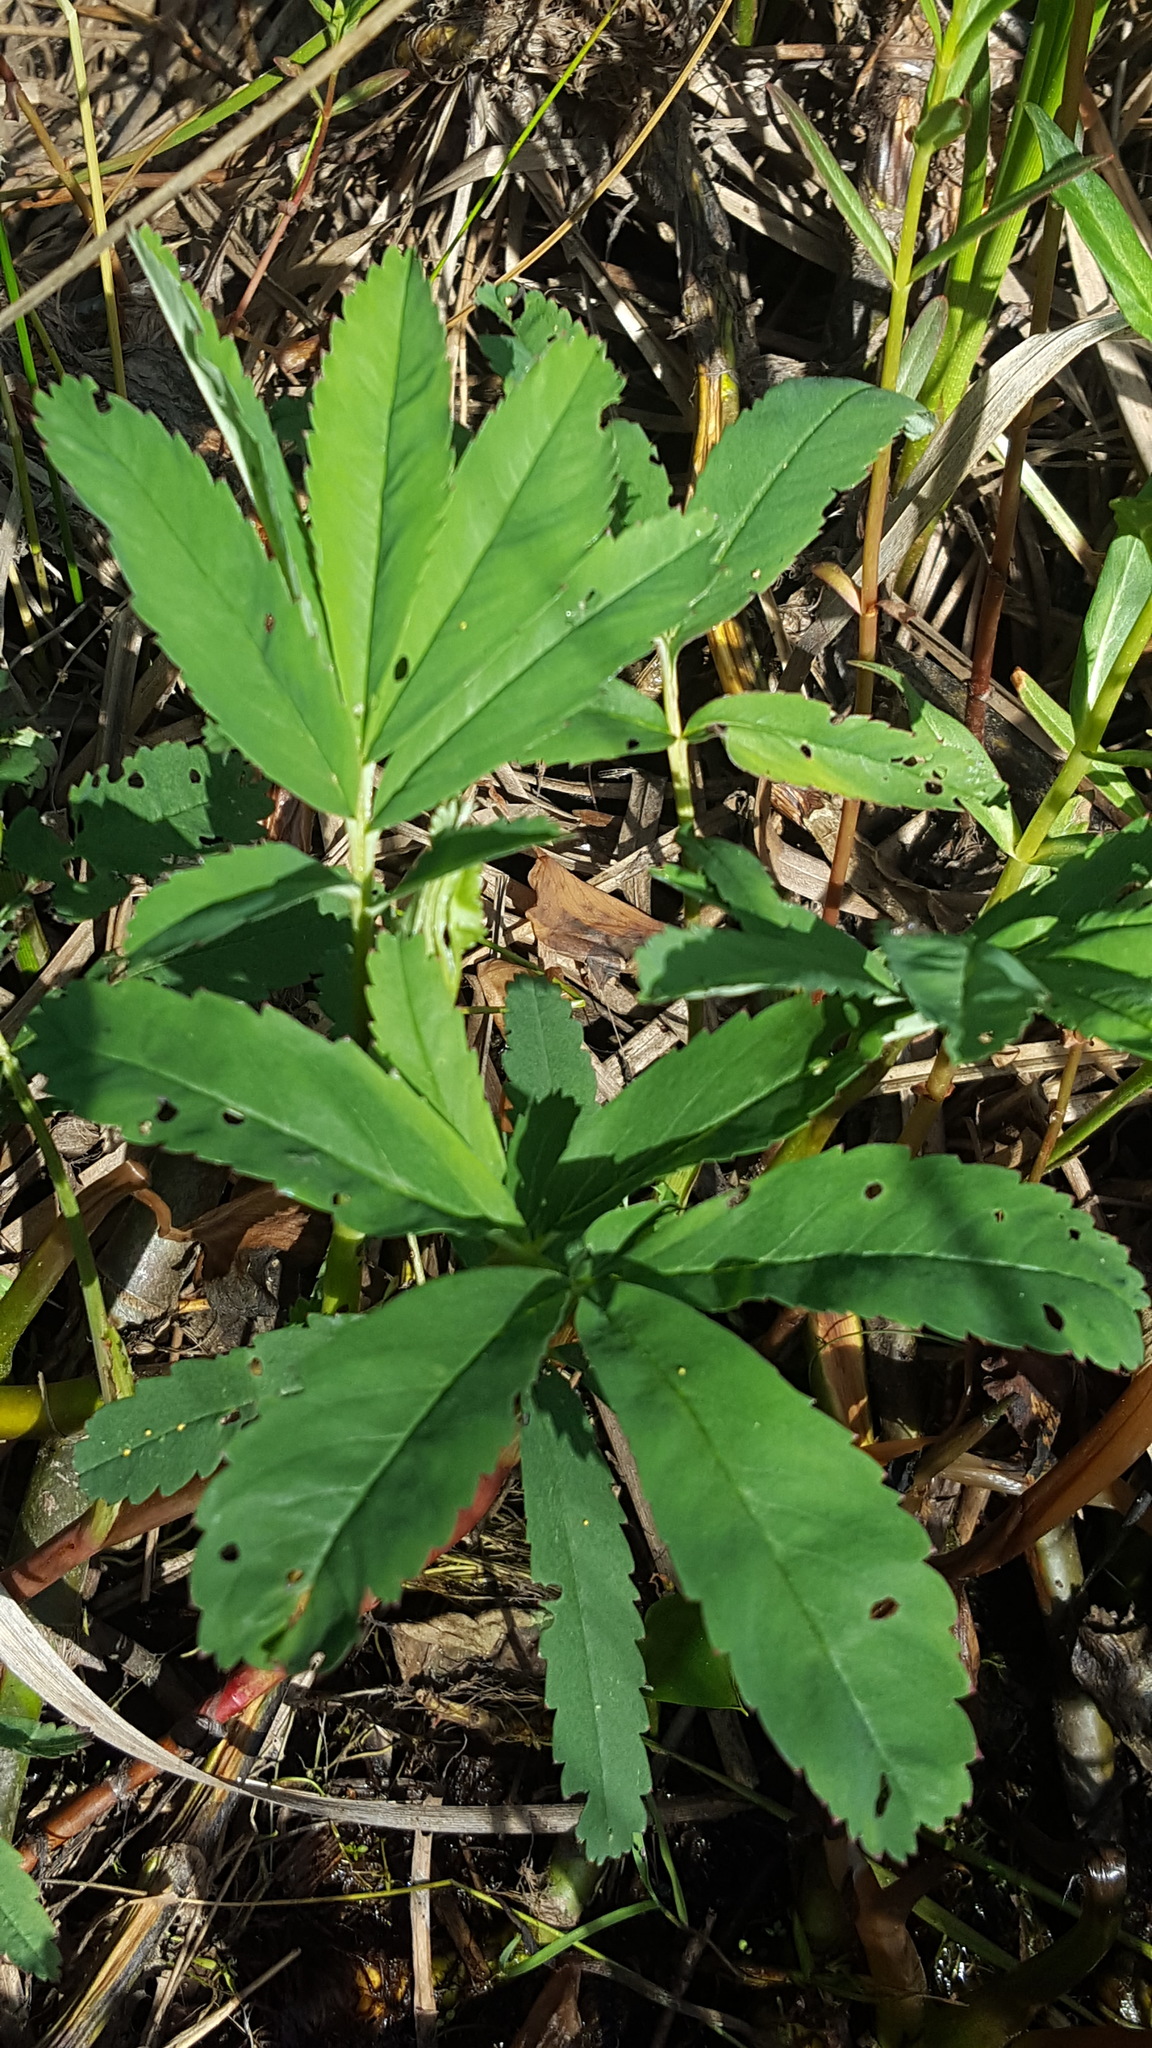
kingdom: Plantae
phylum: Tracheophyta
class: Magnoliopsida
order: Rosales
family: Rosaceae
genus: Comarum
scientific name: Comarum palustre
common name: Marsh cinquefoil
